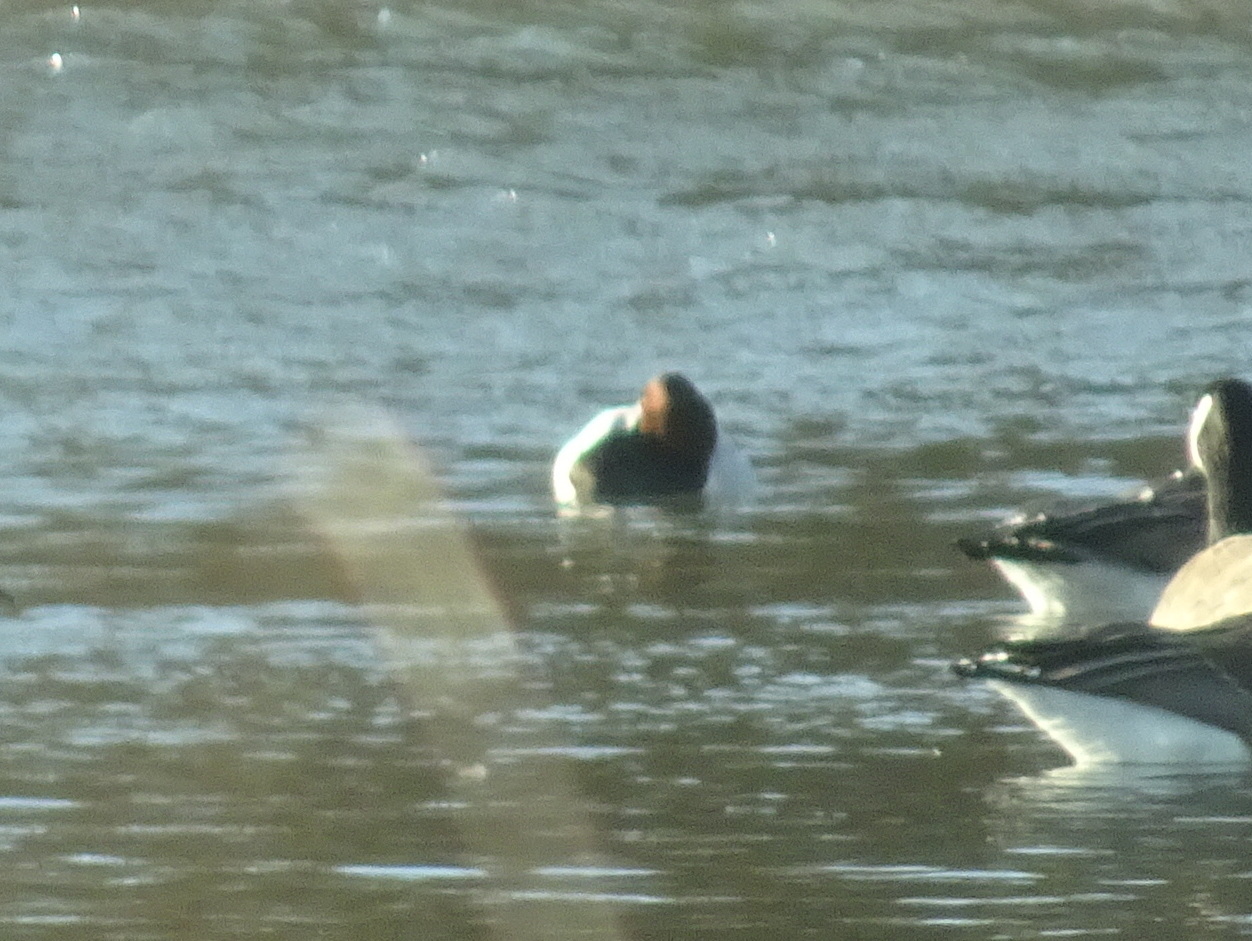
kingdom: Animalia
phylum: Chordata
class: Aves
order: Anseriformes
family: Anatidae
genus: Aythya
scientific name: Aythya valisineria
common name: Canvasback
